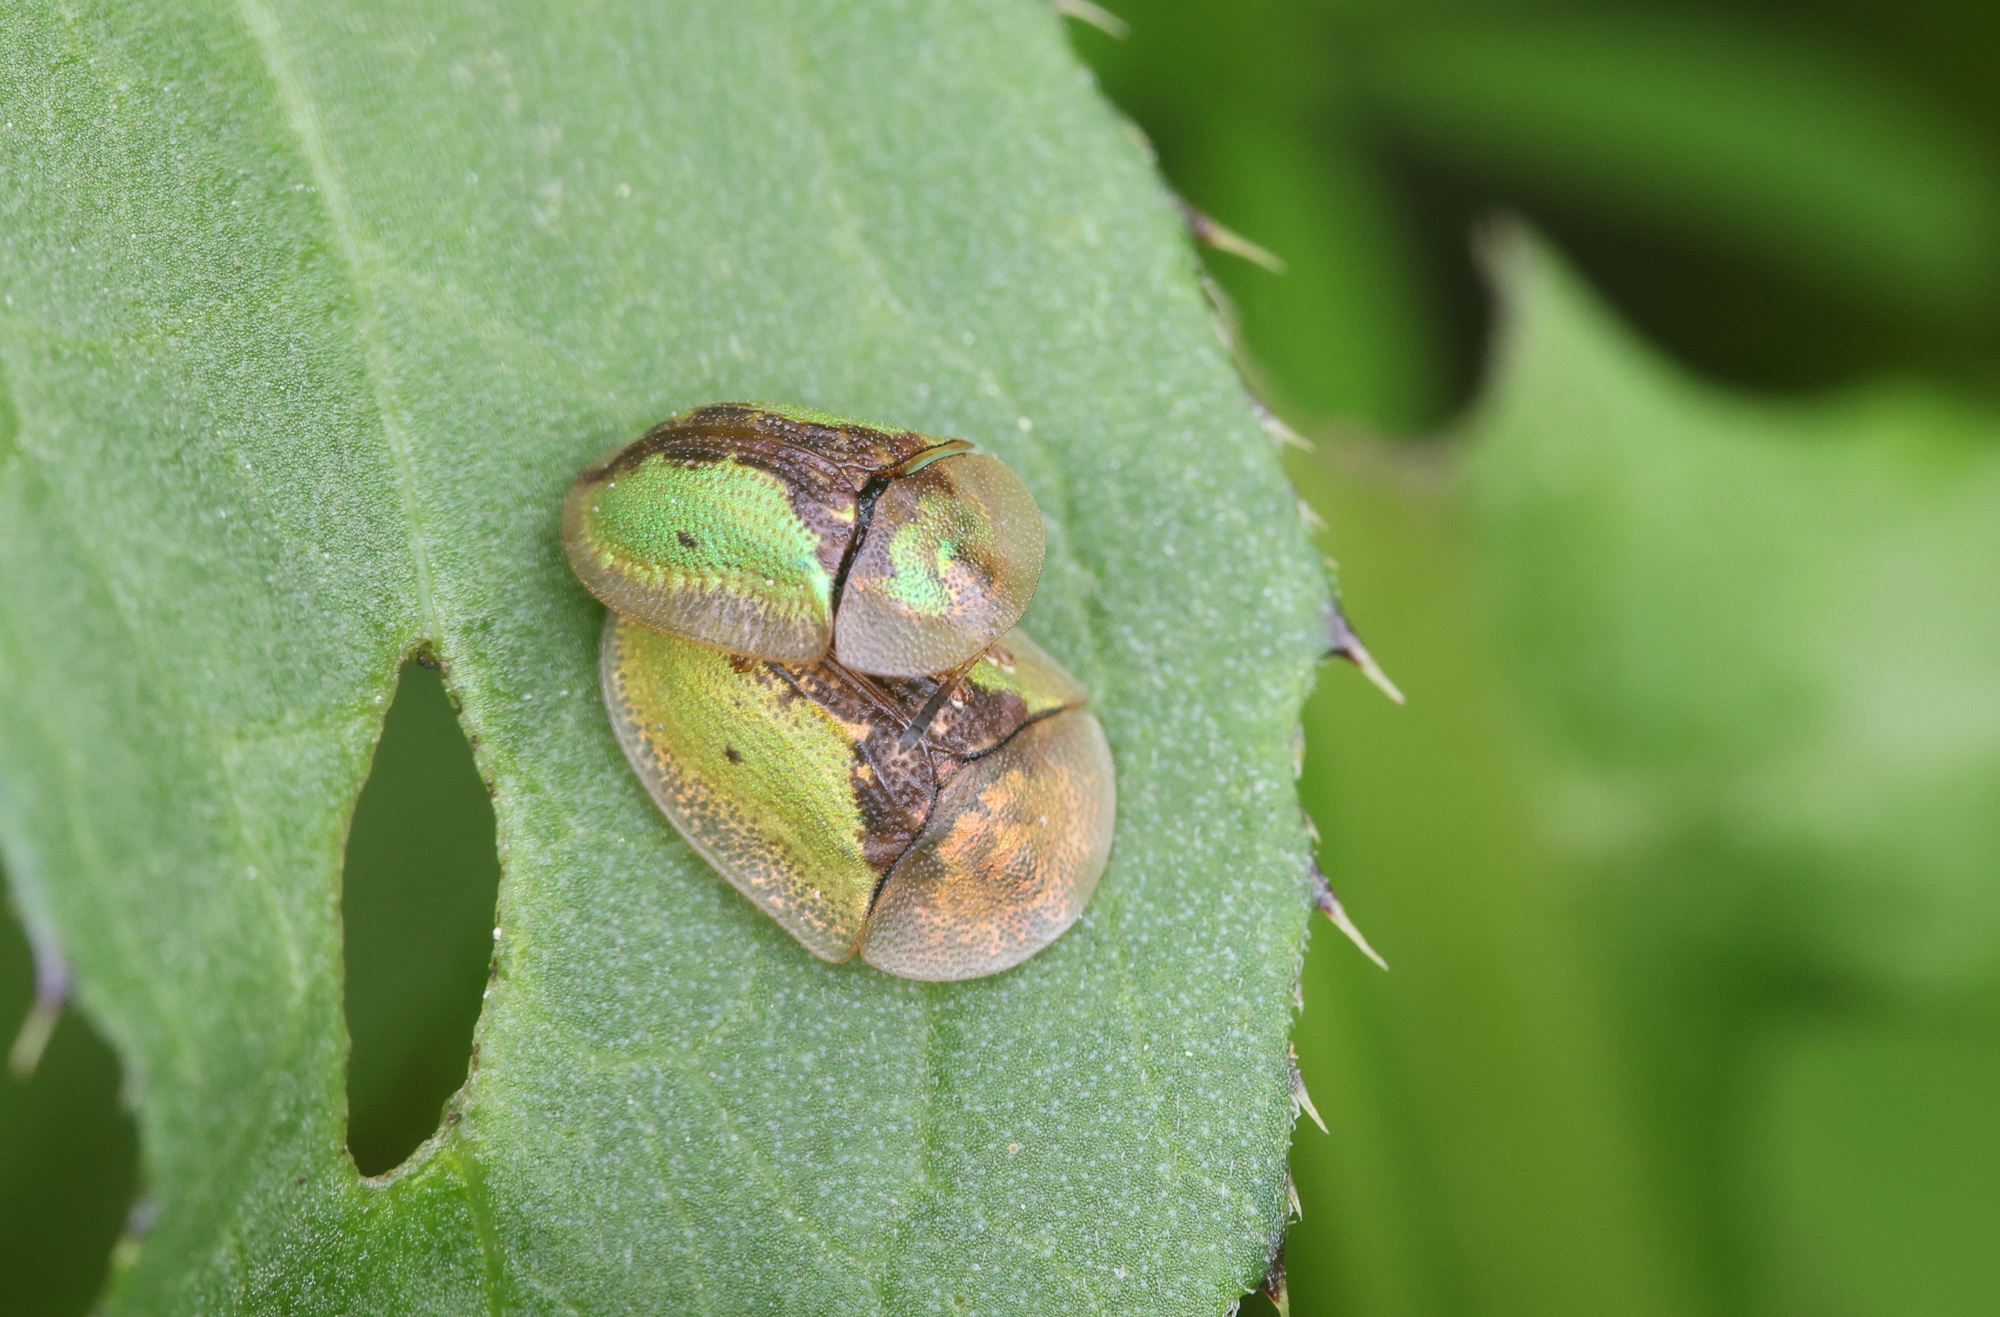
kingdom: Animalia
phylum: Arthropoda
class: Insecta
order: Coleoptera
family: Chrysomelidae
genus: Cassida
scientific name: Cassida vibex
